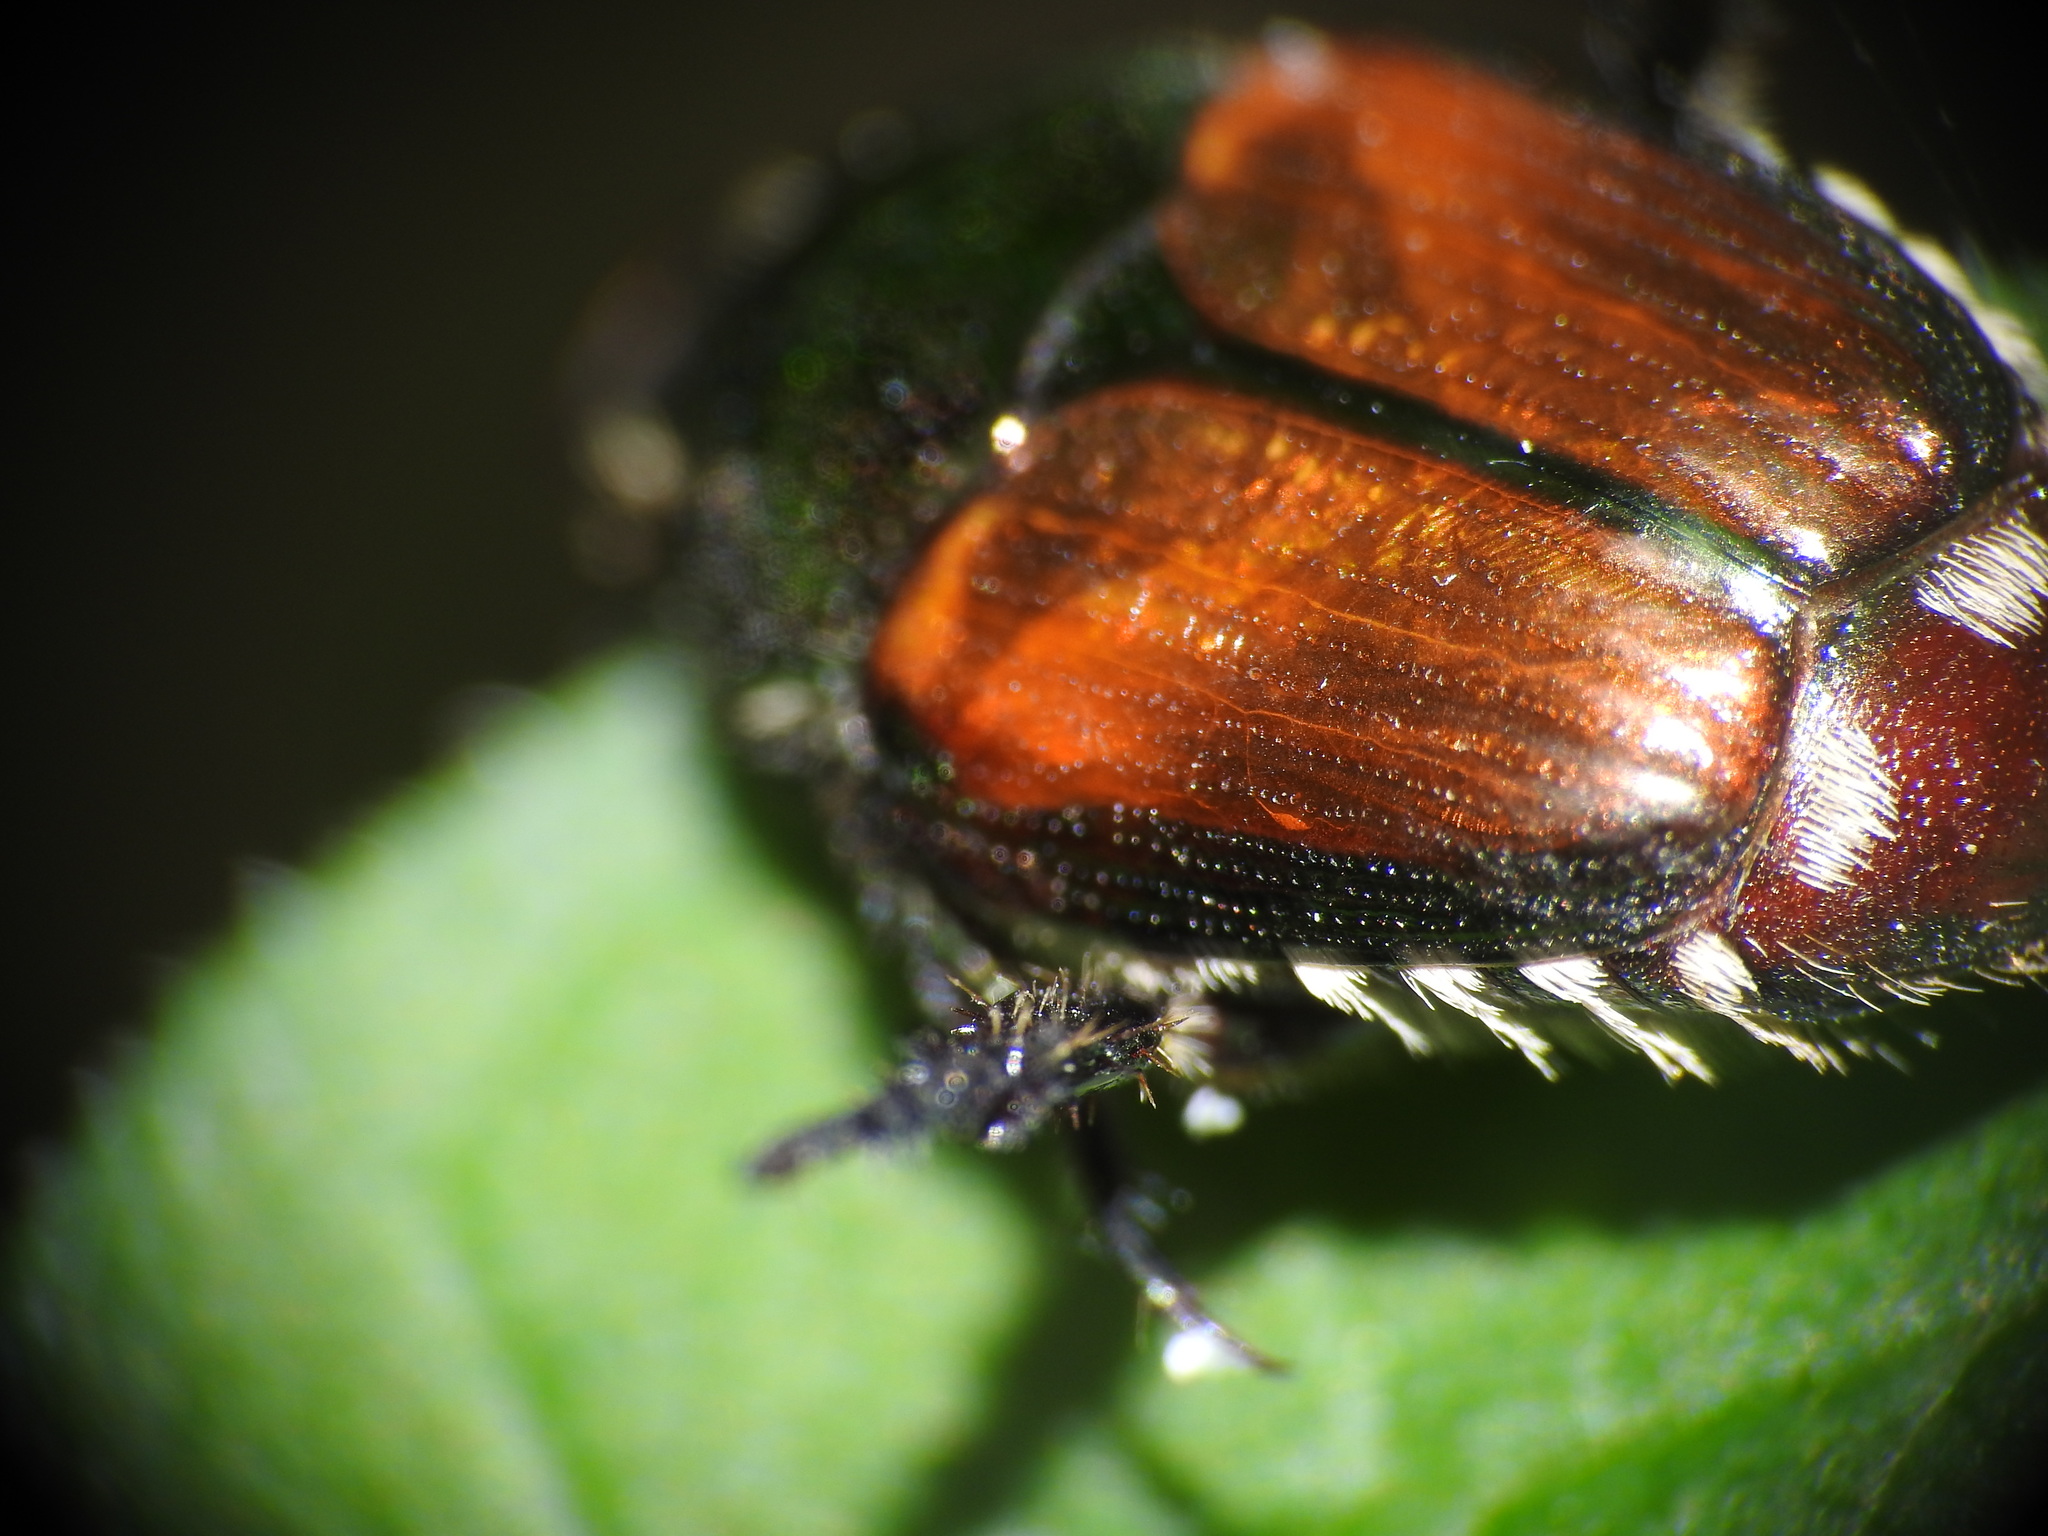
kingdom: Animalia
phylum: Arthropoda
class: Insecta
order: Coleoptera
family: Scarabaeidae
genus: Popillia
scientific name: Popillia japonica
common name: Japanese beetle
